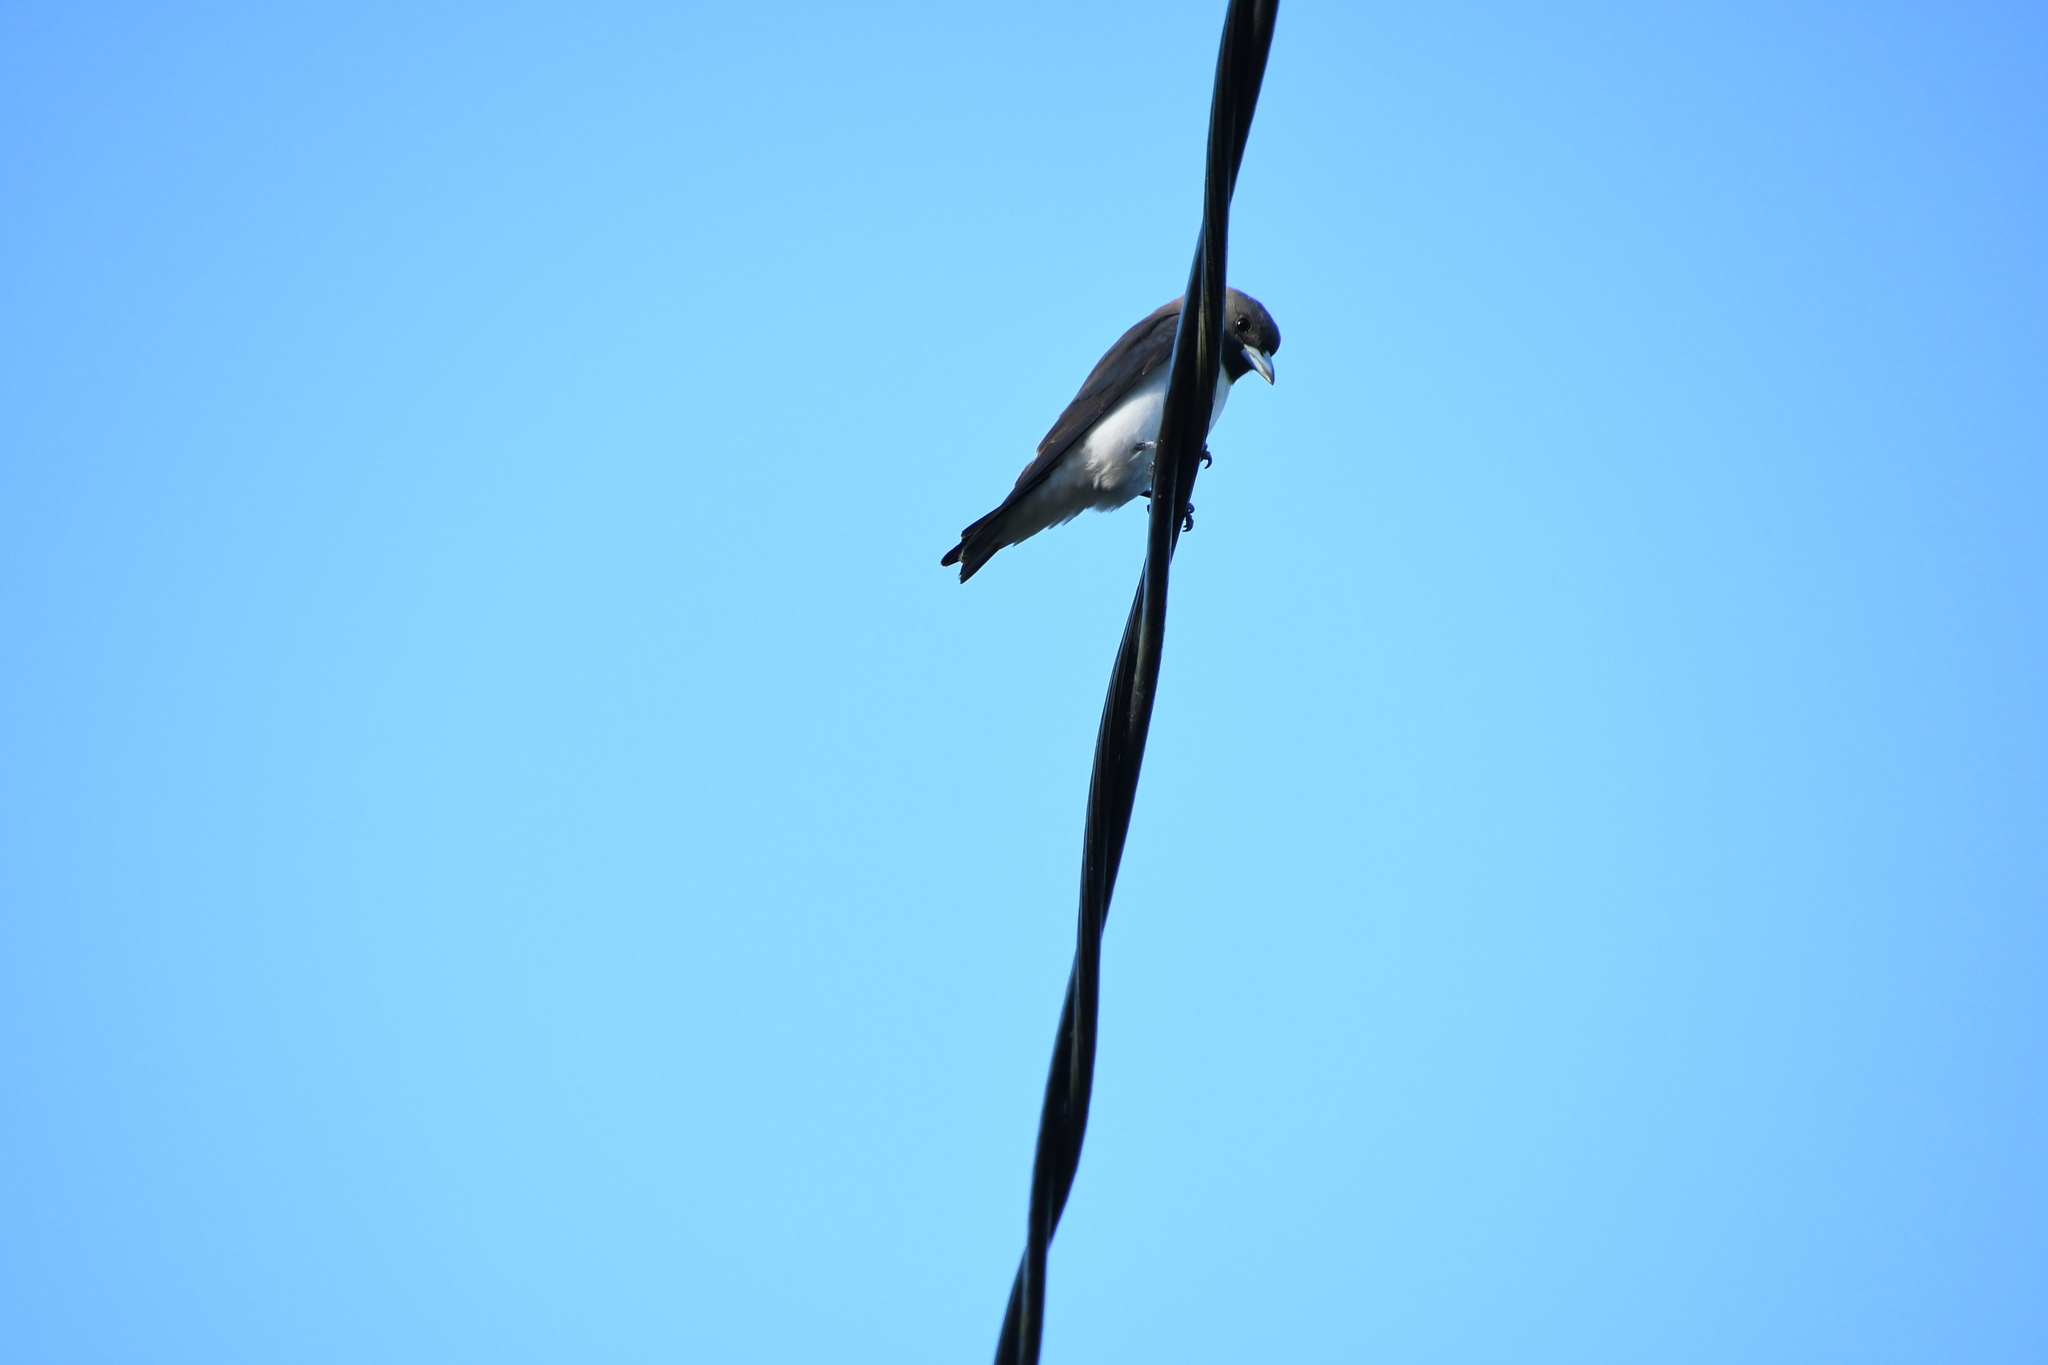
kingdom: Animalia
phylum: Chordata
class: Aves
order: Passeriformes
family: Artamidae
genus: Artamus
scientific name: Artamus leucoryn
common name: White-breasted woodswallow
